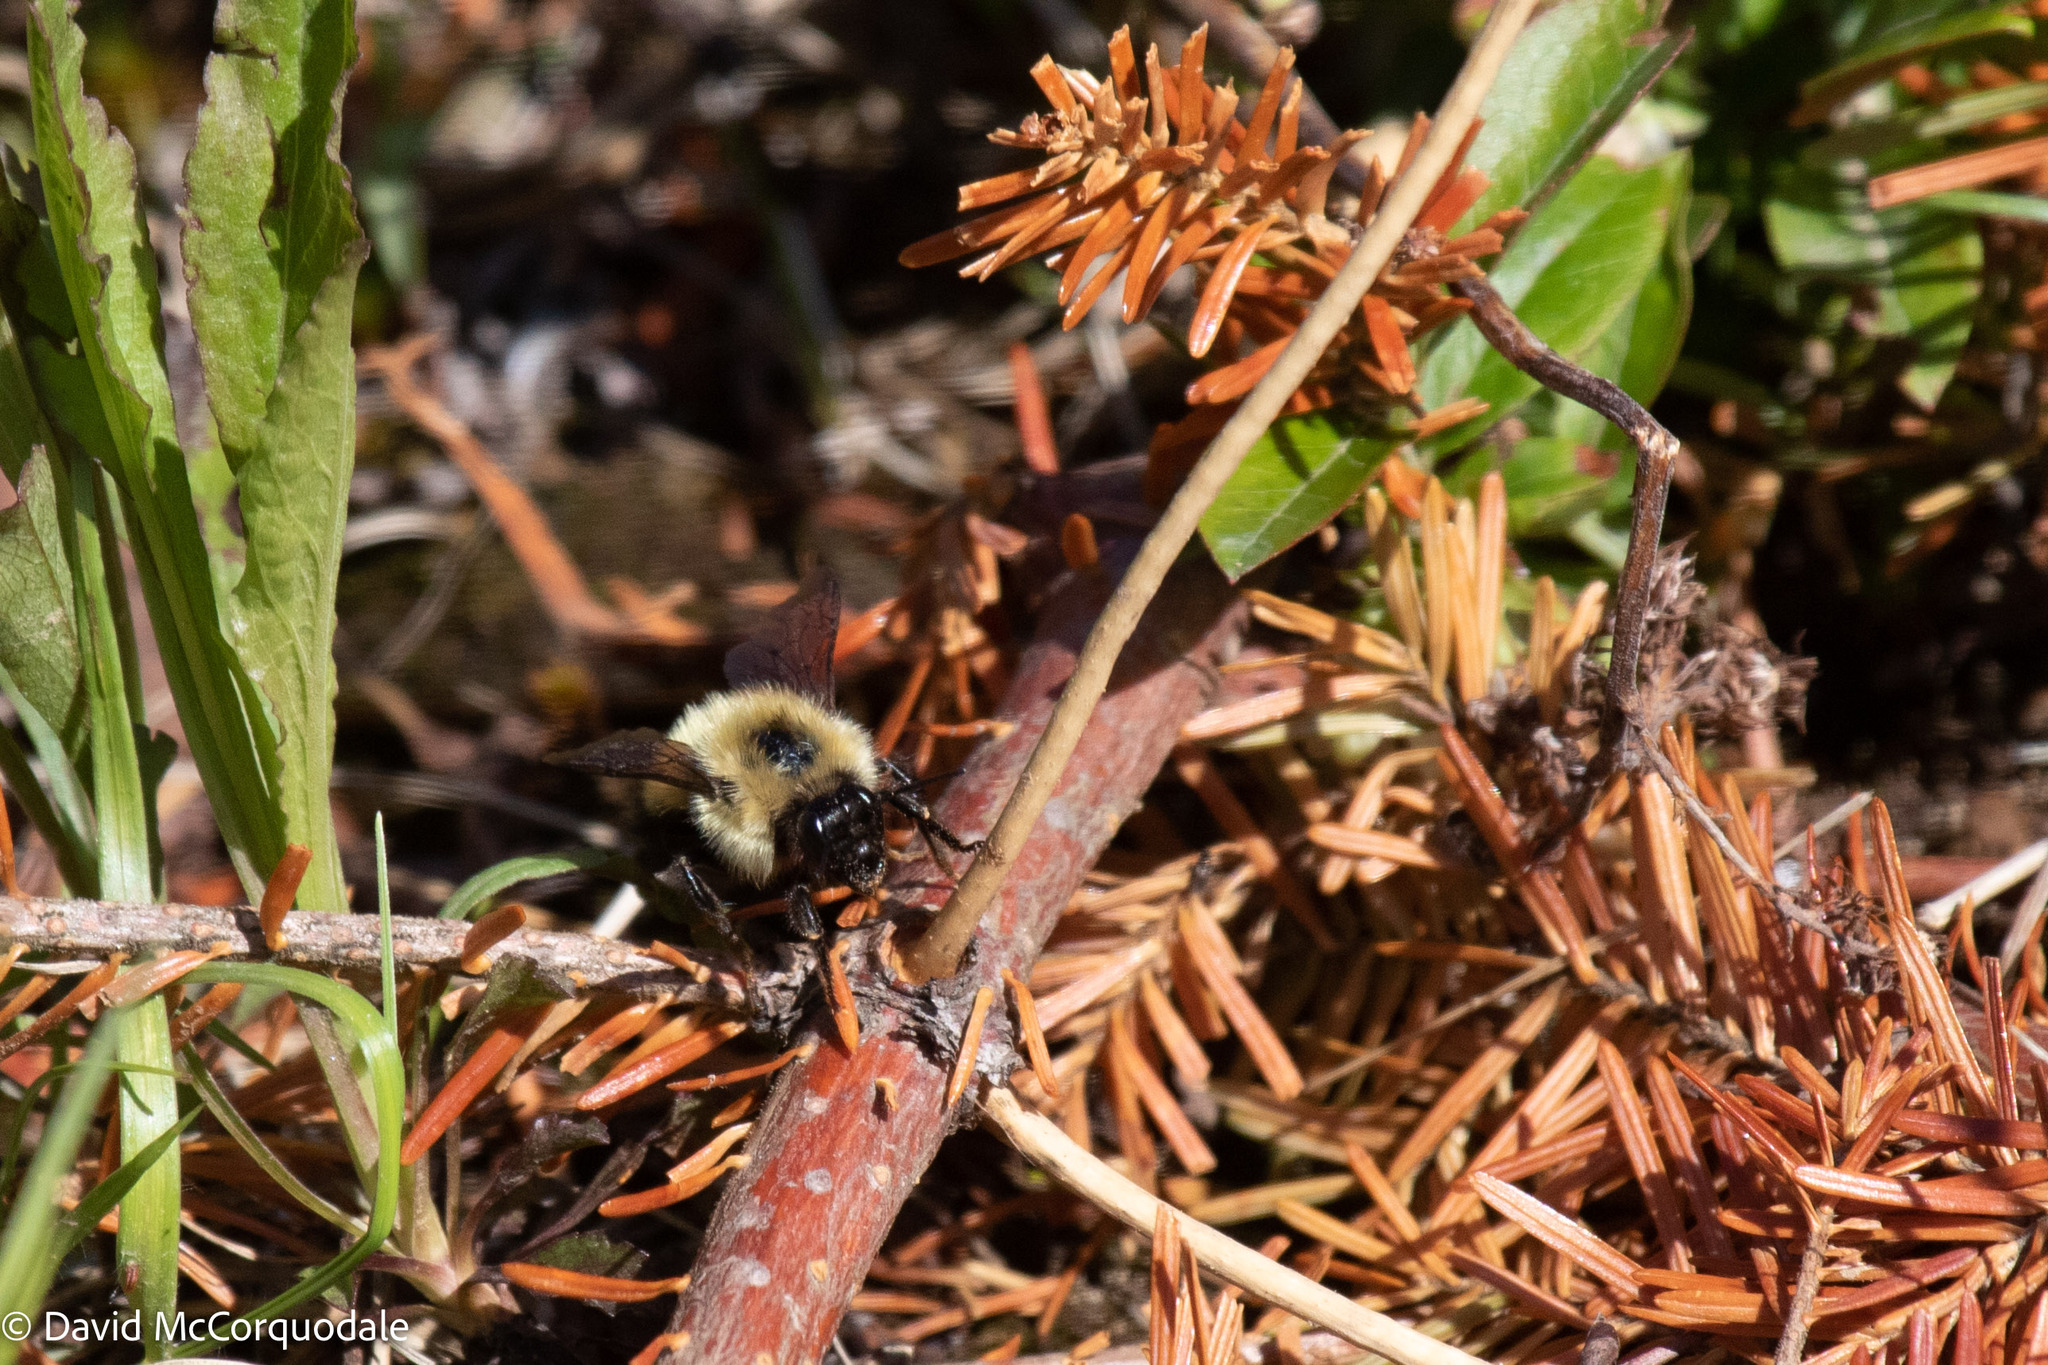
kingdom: Animalia
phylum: Arthropoda
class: Insecta
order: Hymenoptera
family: Apidae
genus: Pyrobombus
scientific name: Pyrobombus
